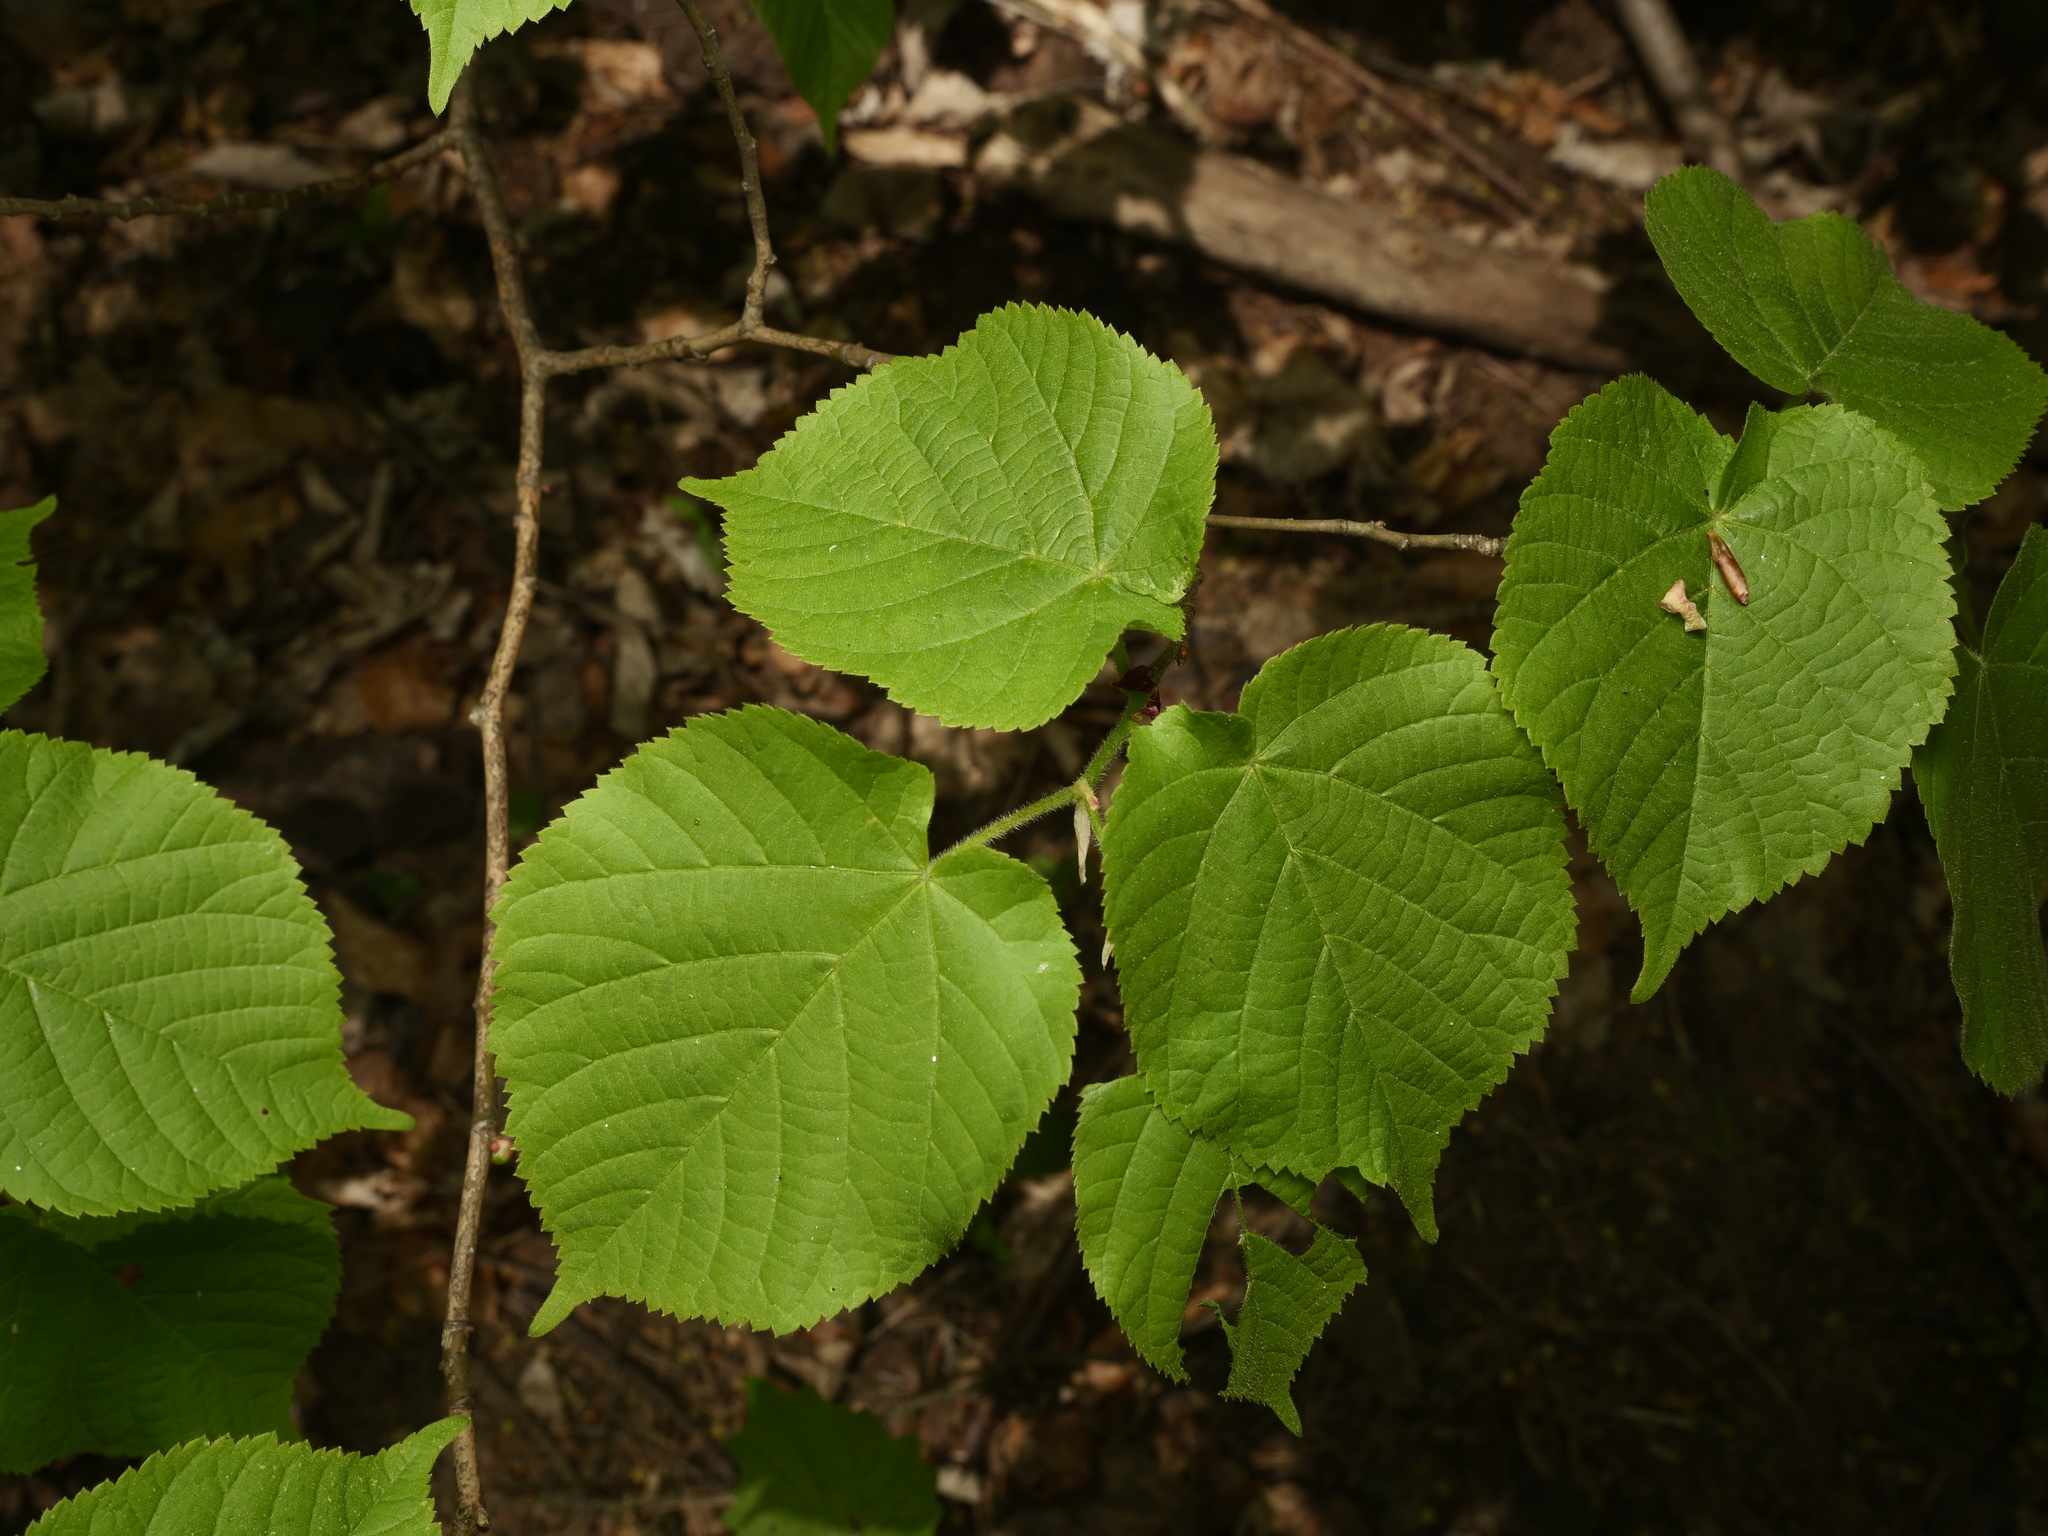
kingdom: Plantae
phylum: Tracheophyta
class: Magnoliopsida
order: Malvales
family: Malvaceae
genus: Tilia
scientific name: Tilia platyphyllos
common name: Large-leaved lime
